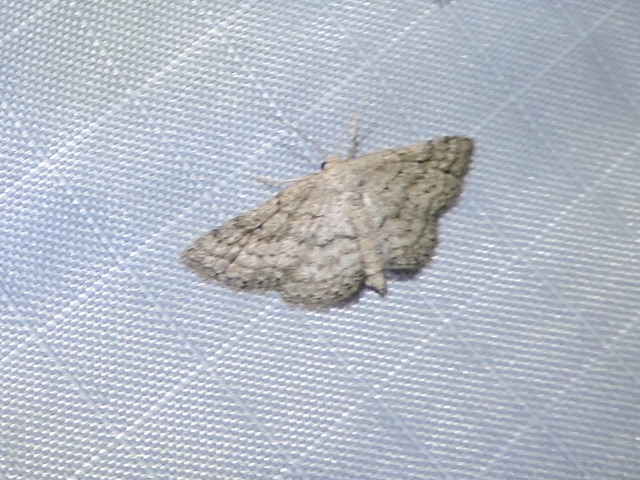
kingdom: Animalia
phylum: Arthropoda
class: Insecta
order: Lepidoptera
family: Geometridae
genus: Lobocleta
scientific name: Lobocleta ossularia
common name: Drab brown wave
